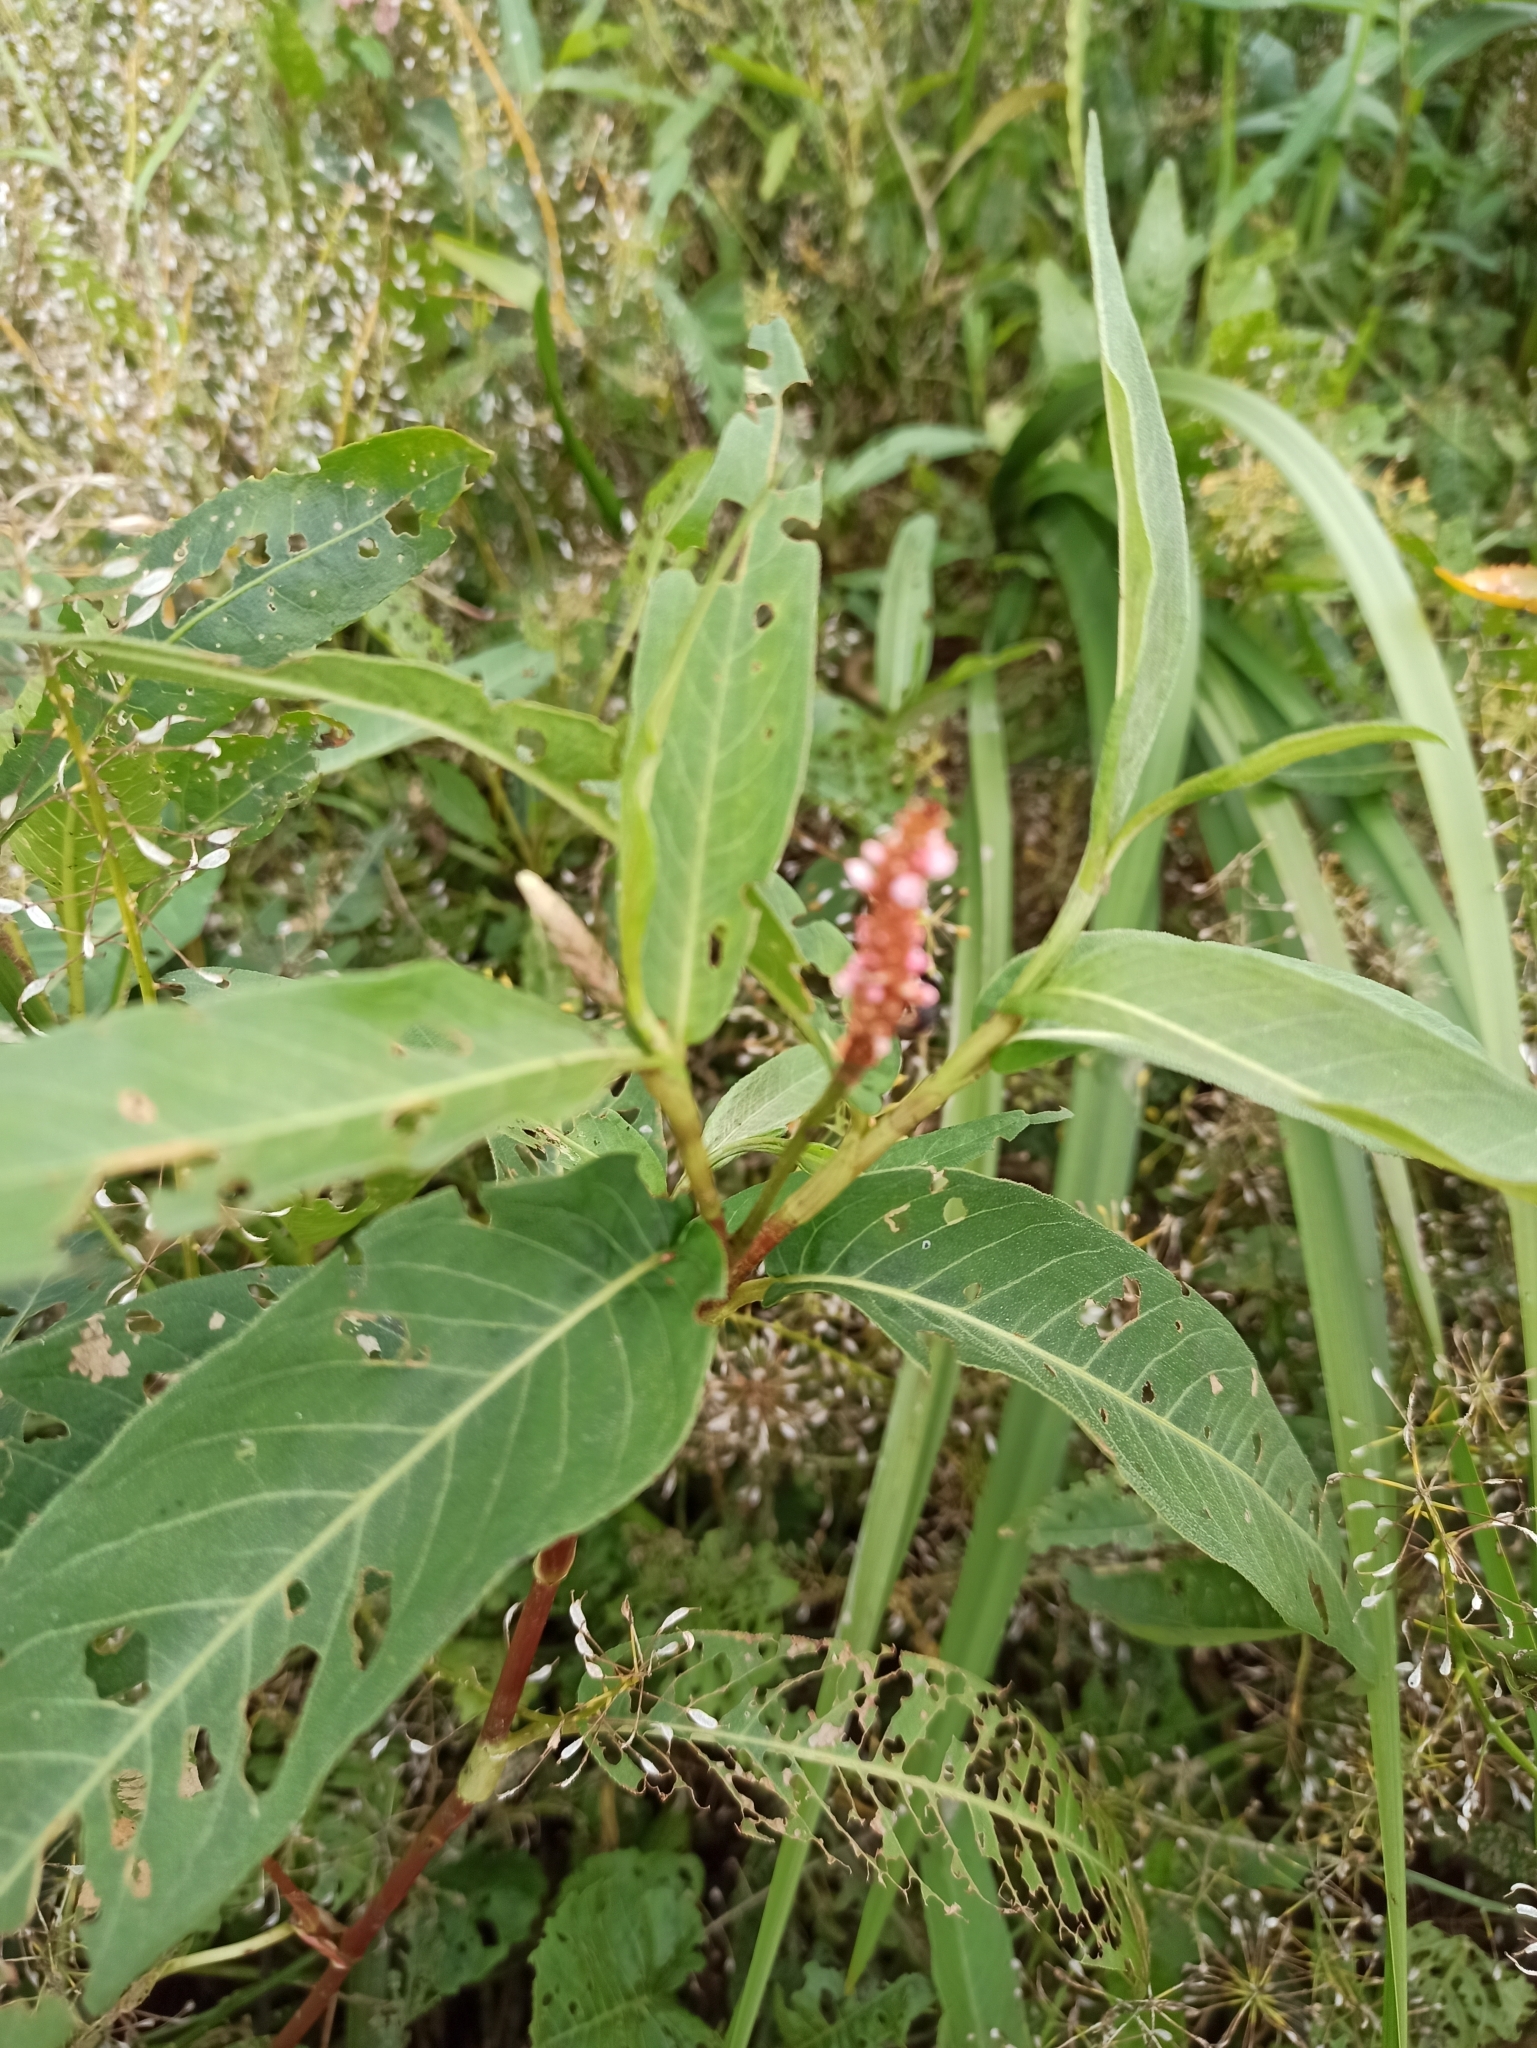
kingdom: Plantae
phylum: Tracheophyta
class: Magnoliopsida
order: Caryophyllales
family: Polygonaceae
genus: Persicaria
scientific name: Persicaria amphibia
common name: Amphibious bistort
